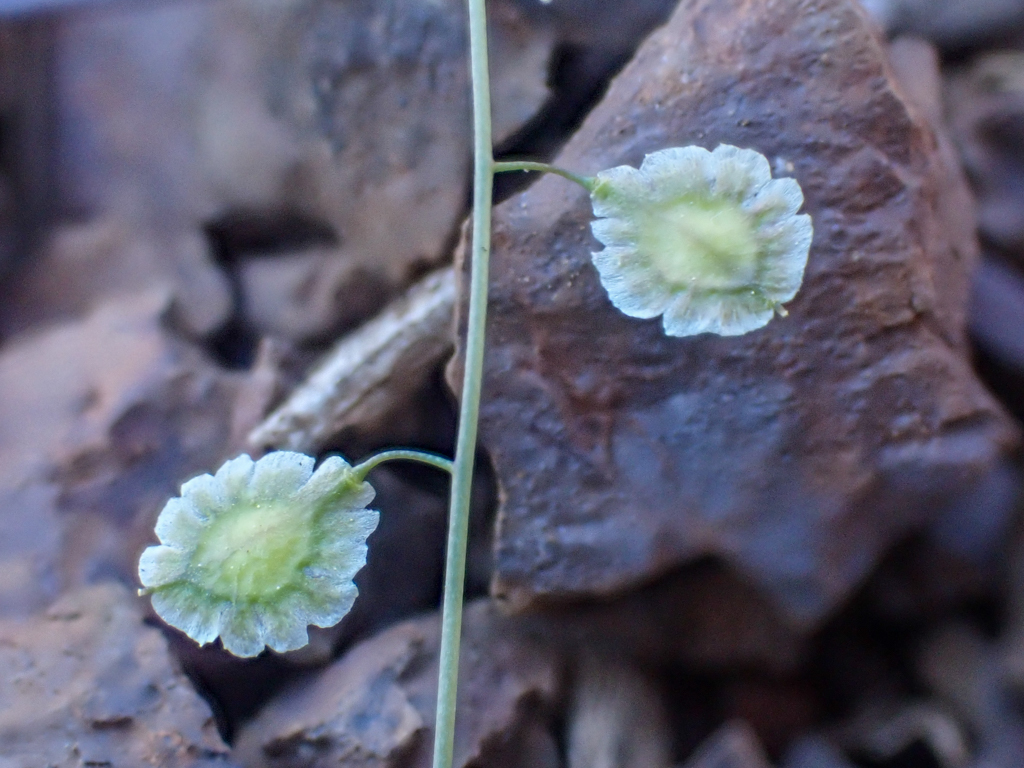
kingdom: Plantae
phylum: Tracheophyta
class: Magnoliopsida
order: Brassicales
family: Brassicaceae
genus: Thysanocarpus
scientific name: Thysanocarpus laciniatus
